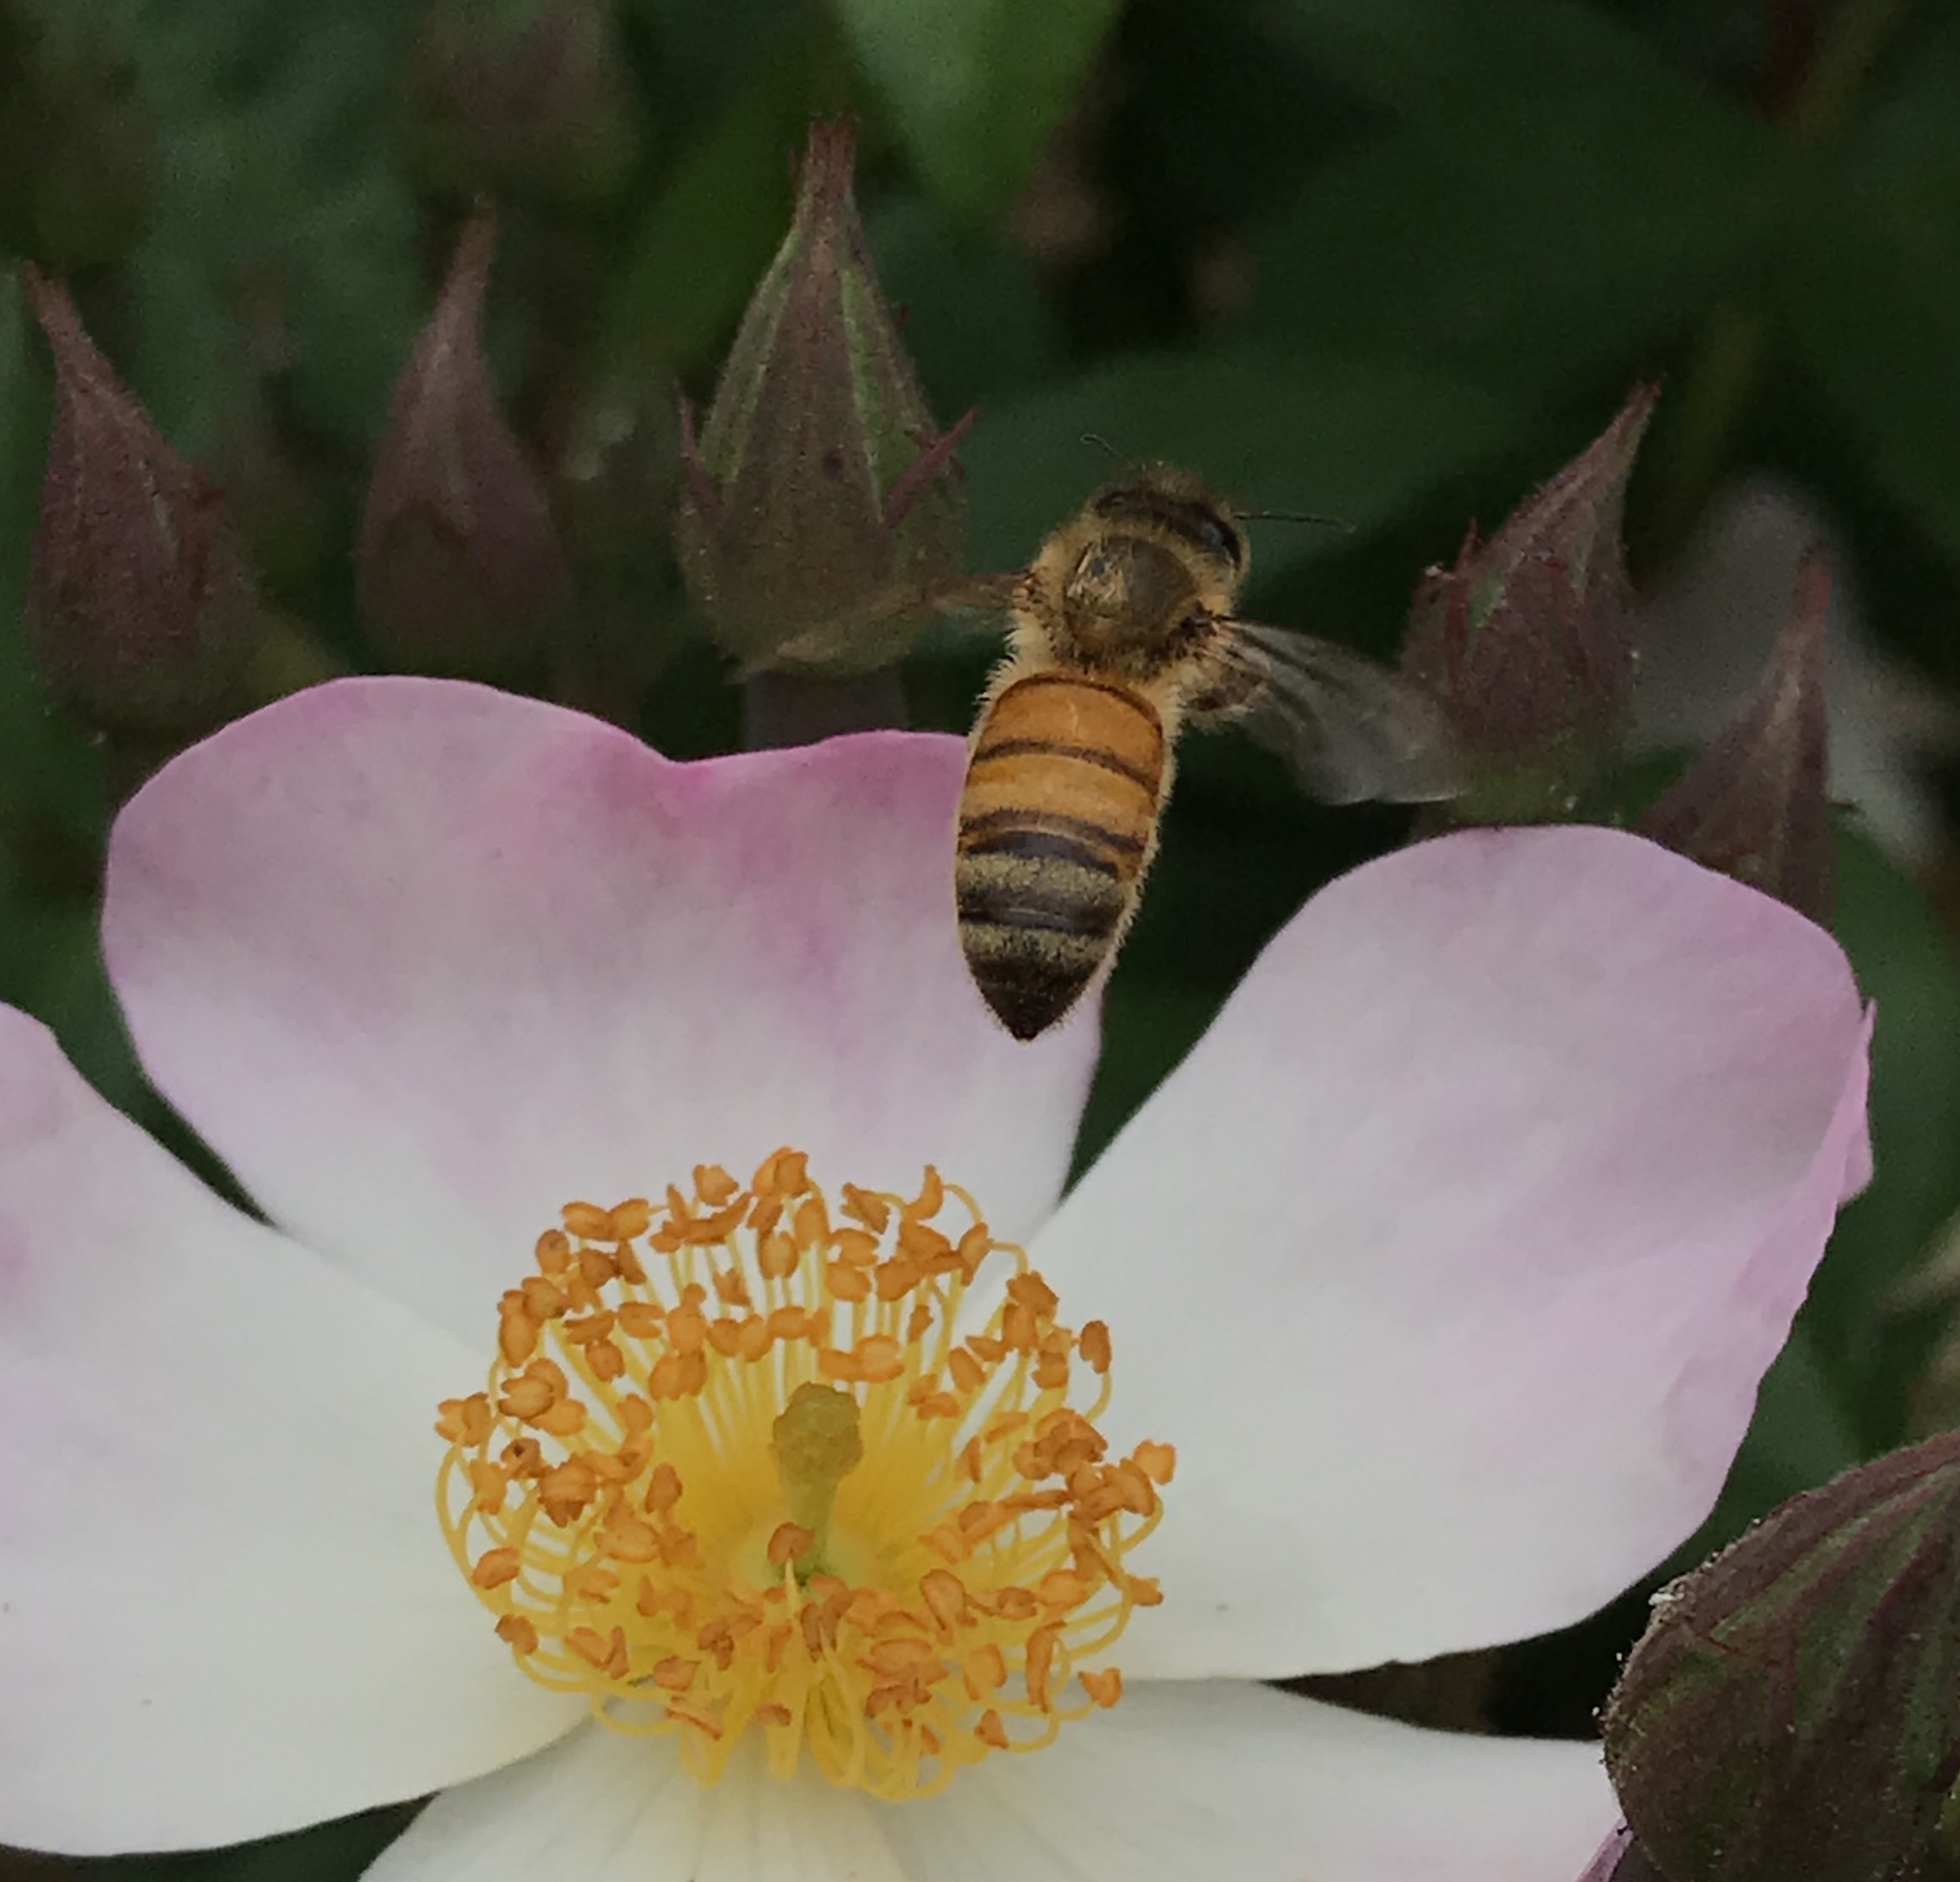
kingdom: Animalia
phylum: Arthropoda
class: Insecta
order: Hymenoptera
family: Apidae
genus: Apis
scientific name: Apis mellifera
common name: Honey bee
